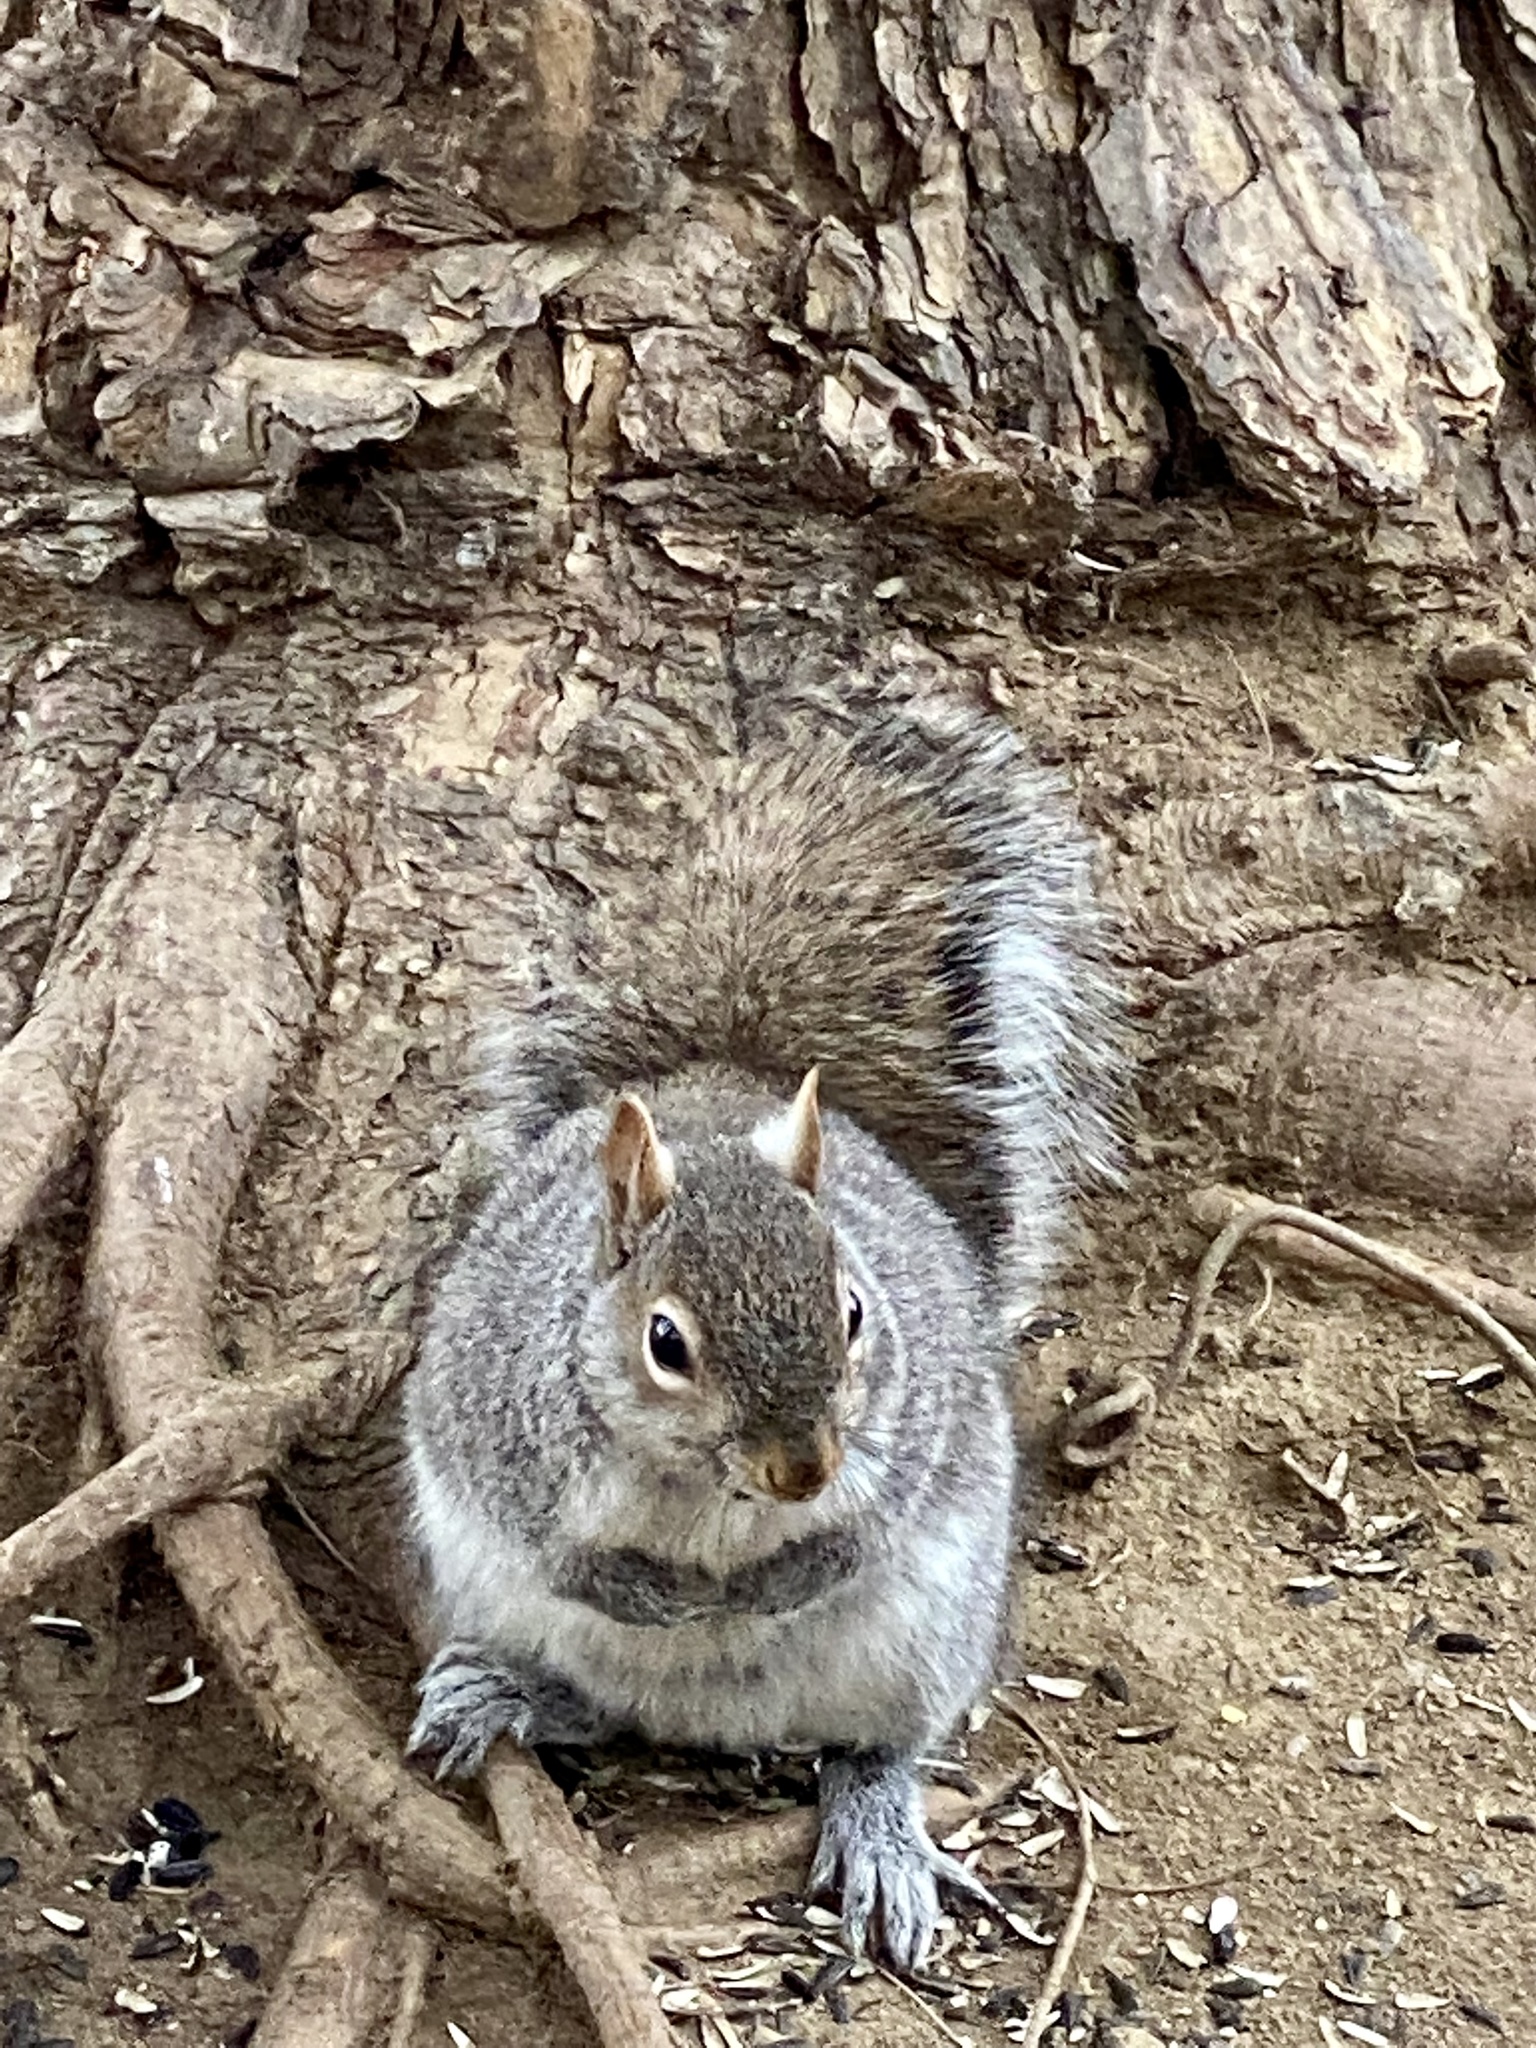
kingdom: Animalia
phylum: Chordata
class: Mammalia
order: Rodentia
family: Sciuridae
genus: Sciurus
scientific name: Sciurus carolinensis
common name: Eastern gray squirrel
